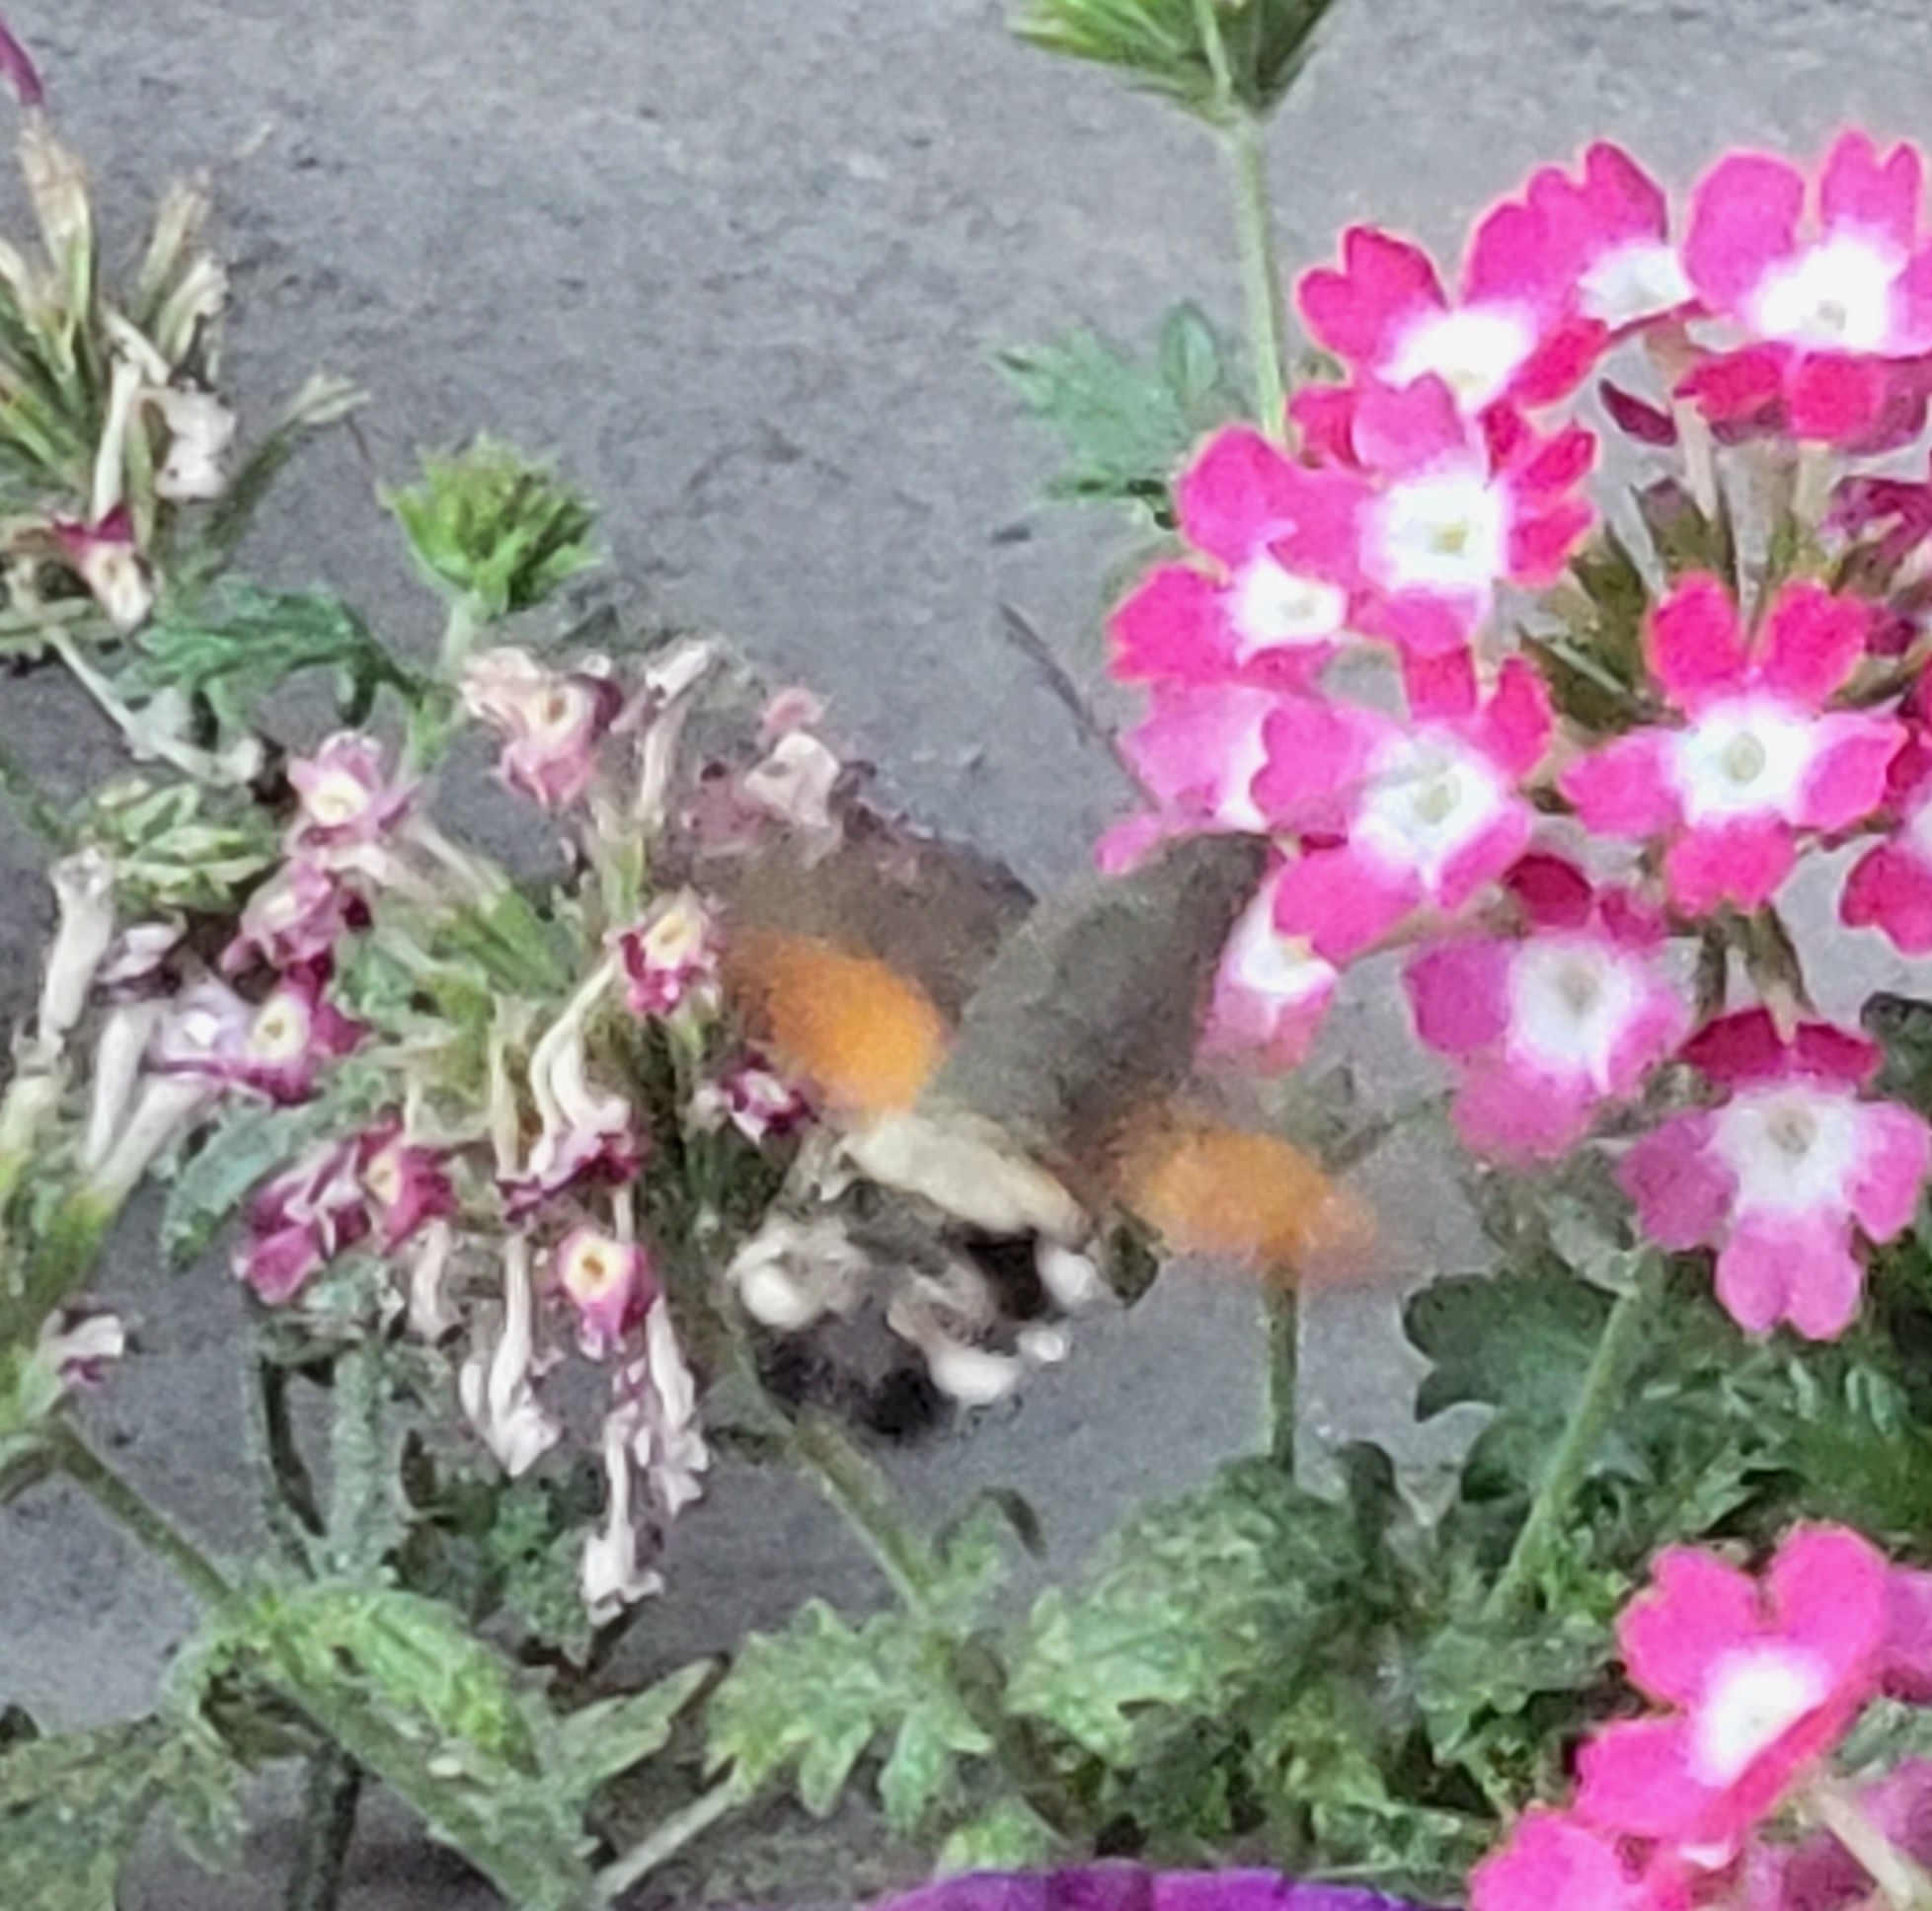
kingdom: Animalia
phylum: Arthropoda
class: Insecta
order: Lepidoptera
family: Sphingidae
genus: Macroglossum
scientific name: Macroglossum stellatarum
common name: Humming-bird hawk-moth
